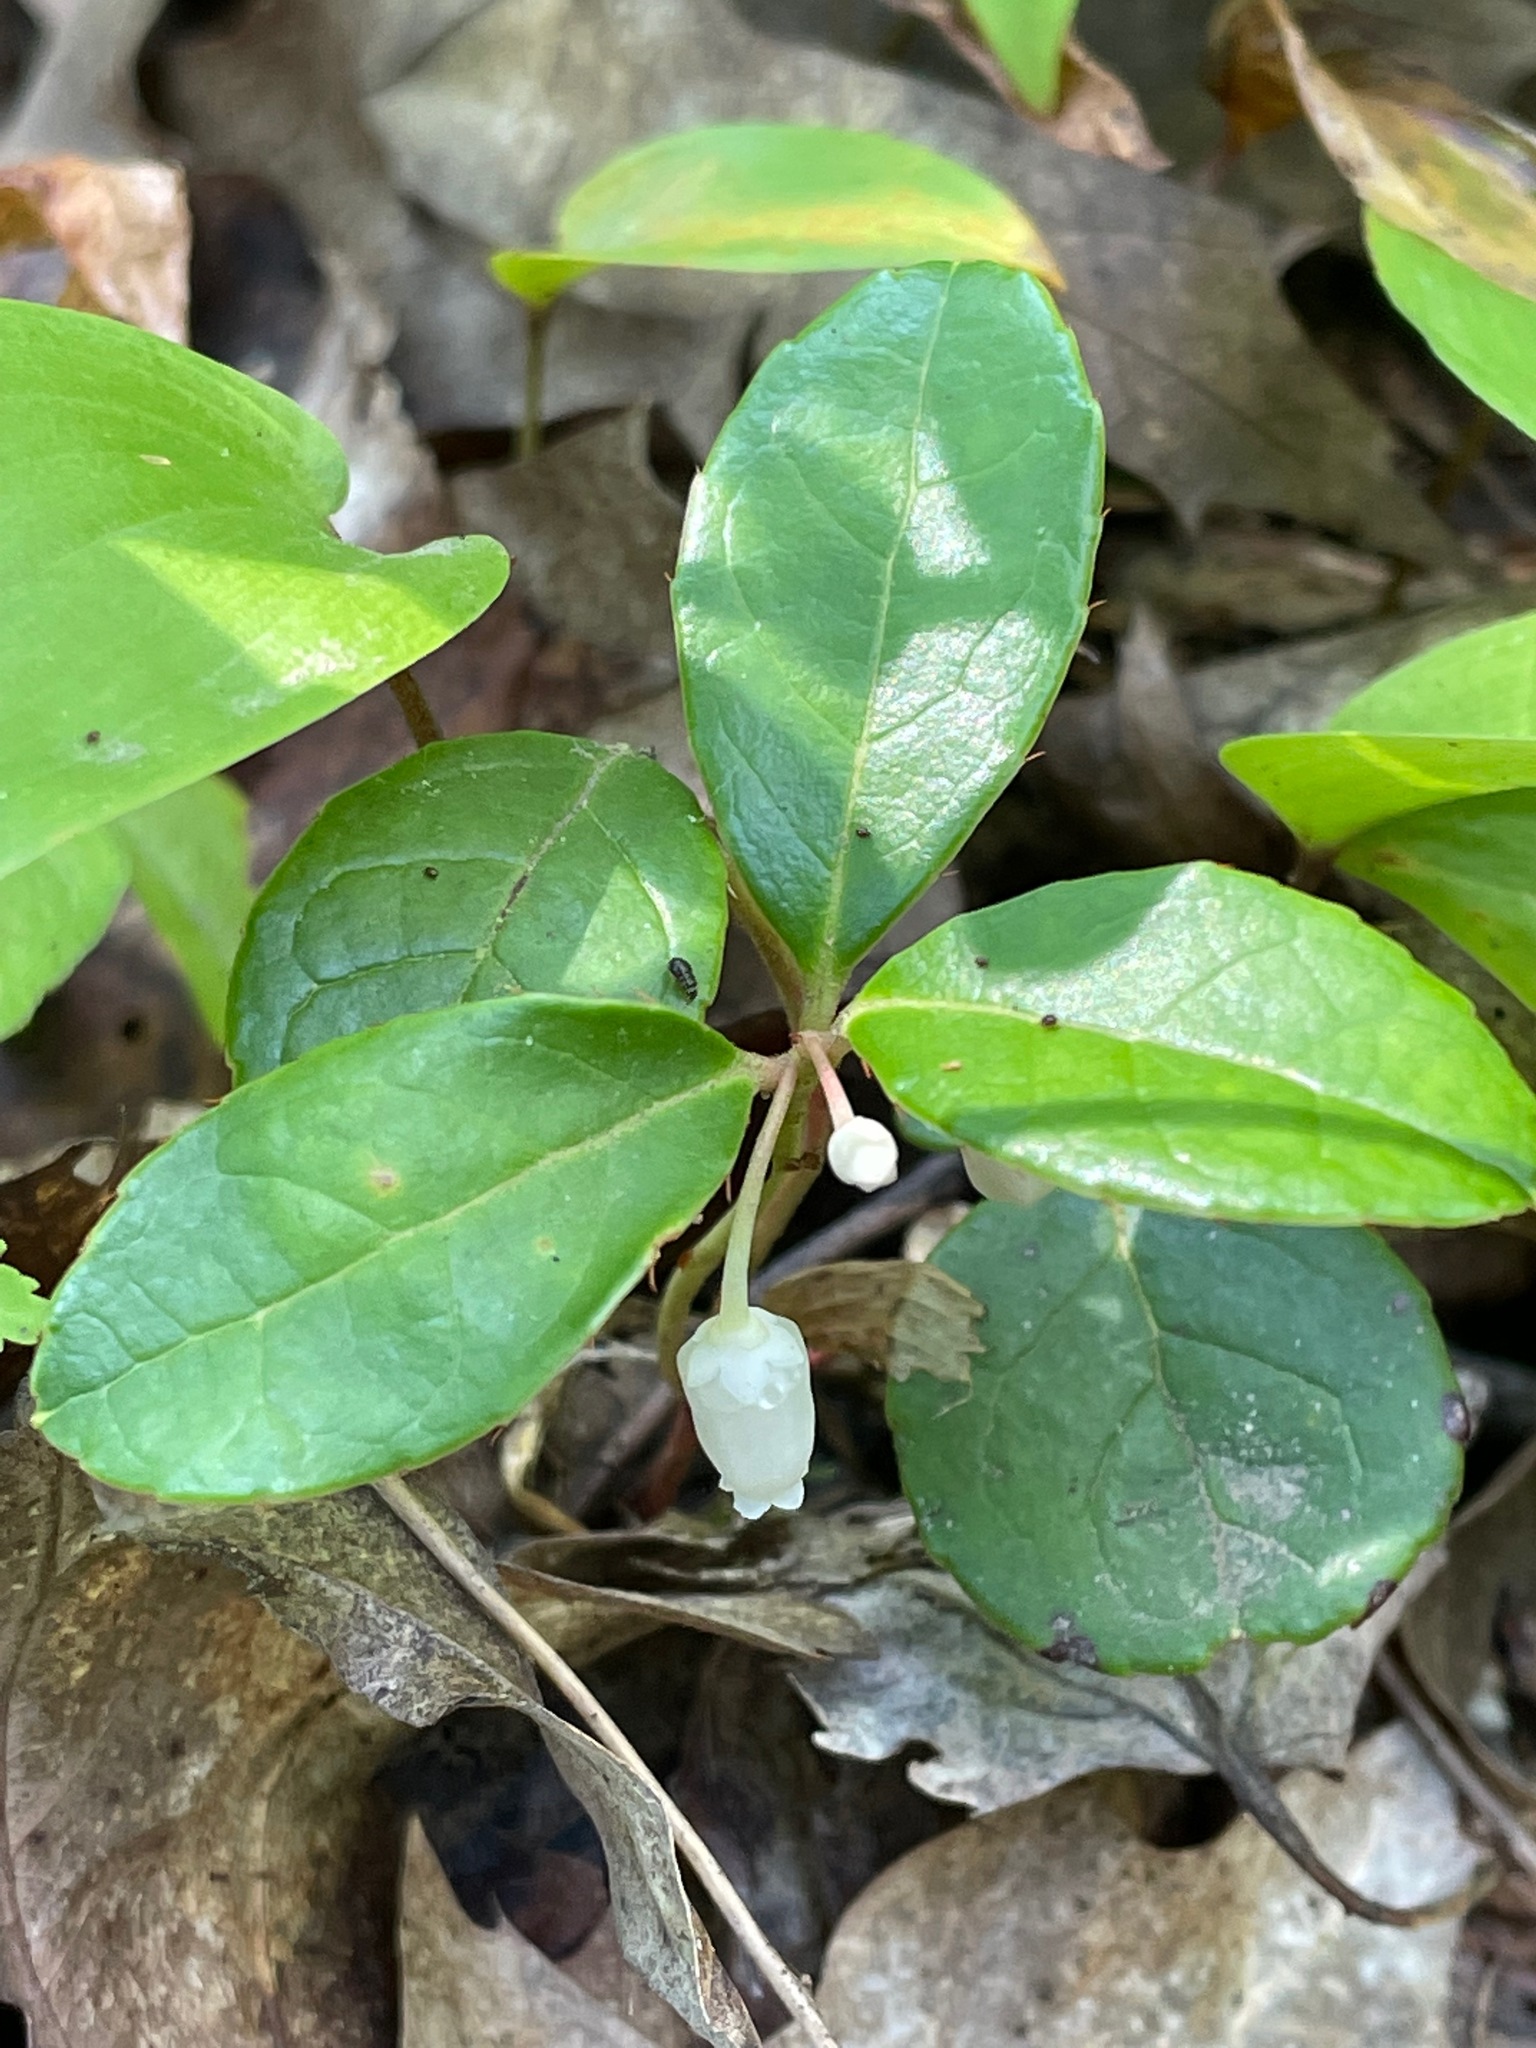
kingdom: Plantae
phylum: Tracheophyta
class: Magnoliopsida
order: Ericales
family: Ericaceae
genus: Gaultheria
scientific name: Gaultheria procumbens
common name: Checkerberry
